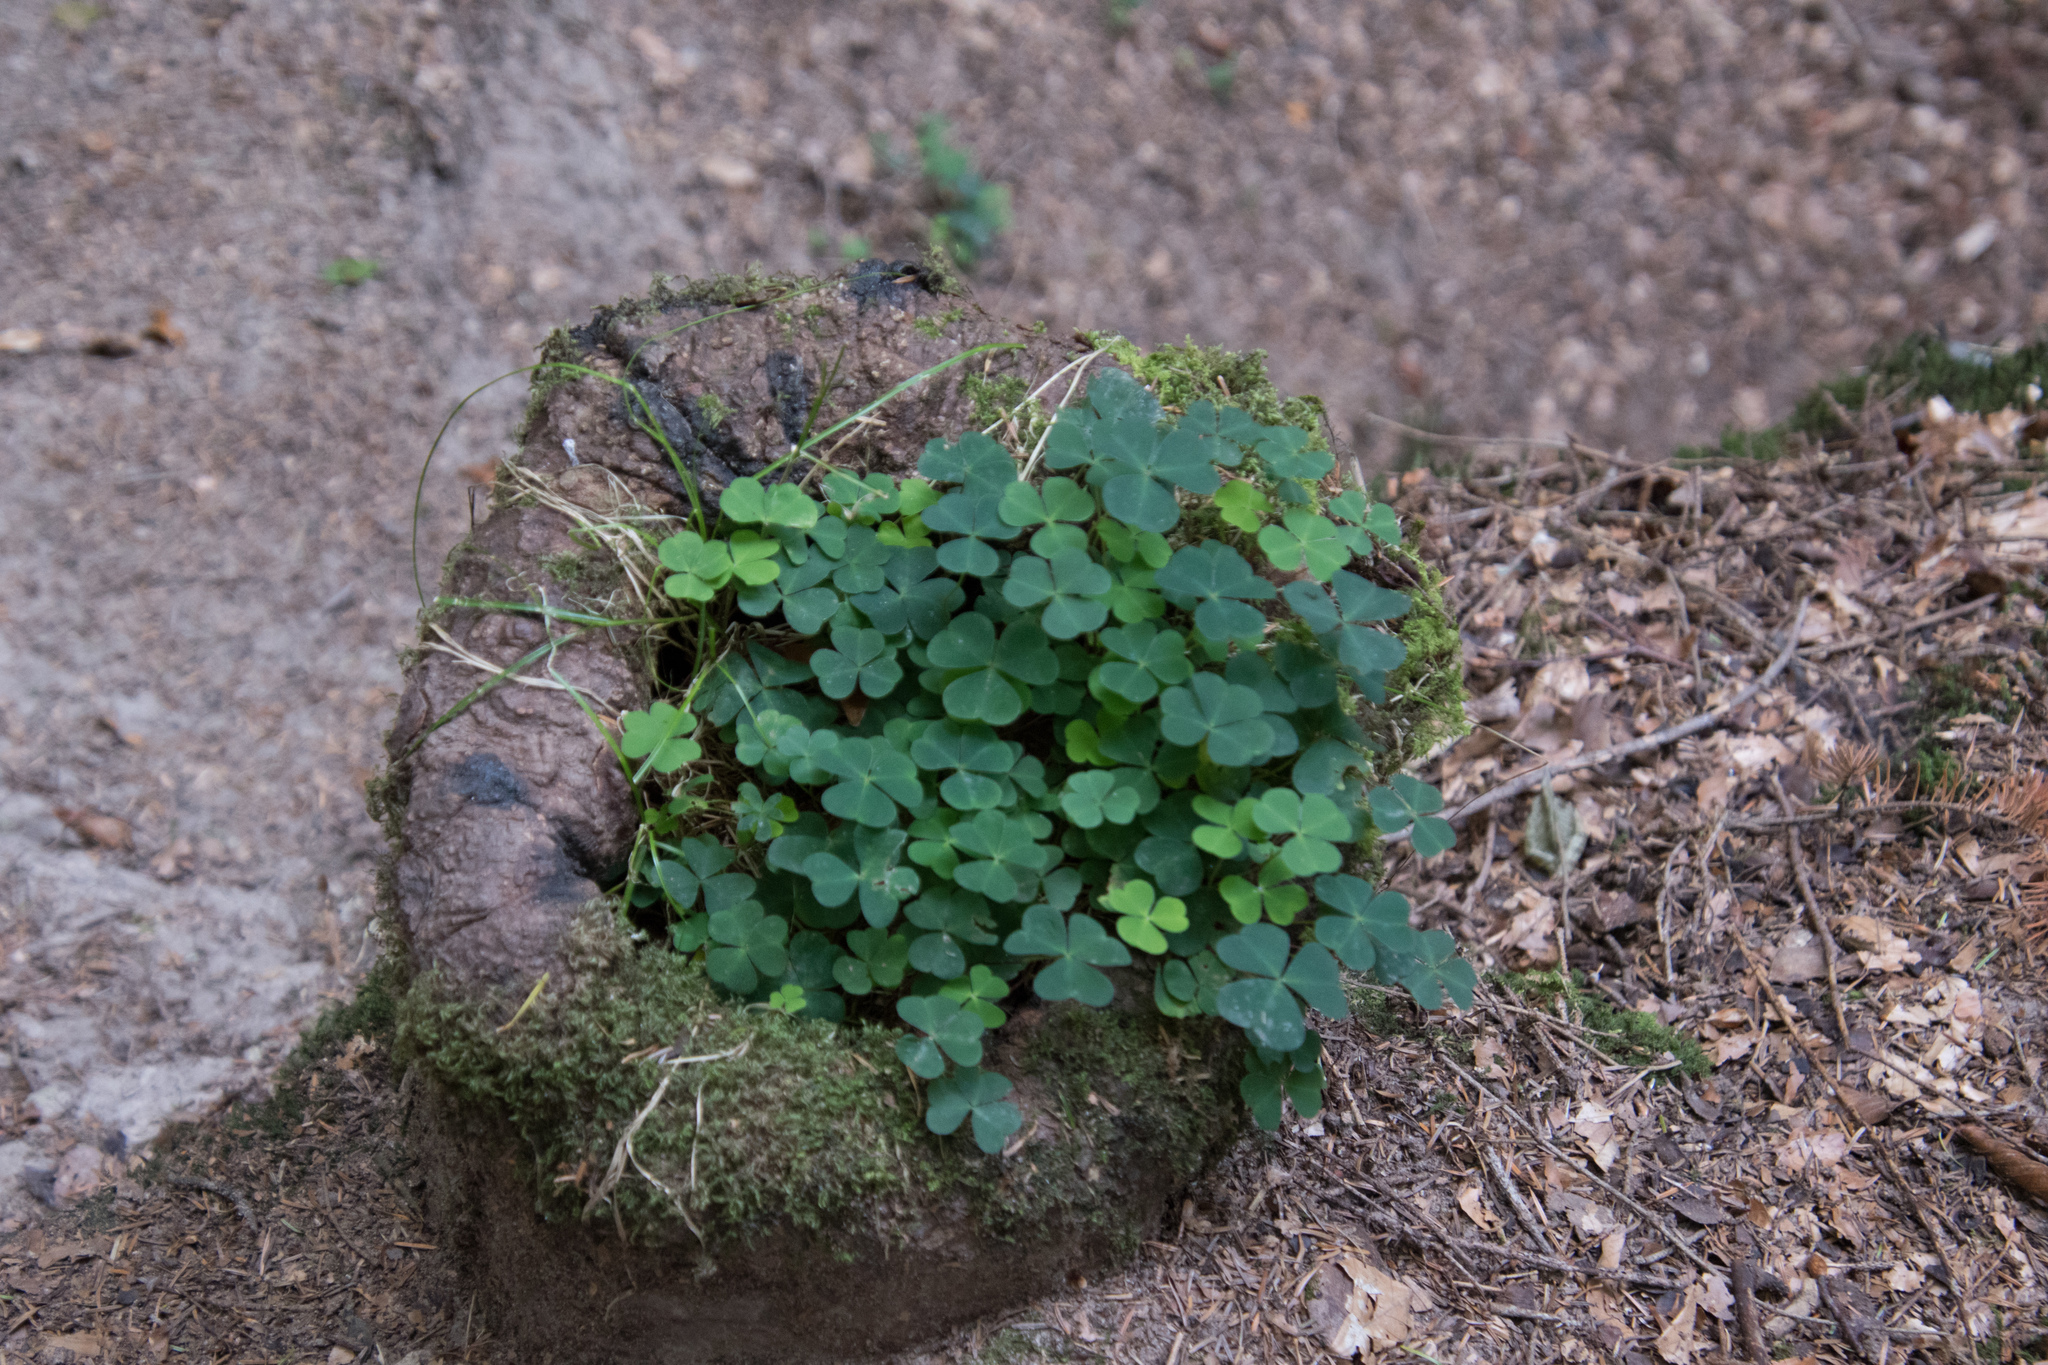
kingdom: Plantae
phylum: Tracheophyta
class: Magnoliopsida
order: Oxalidales
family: Oxalidaceae
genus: Oxalis
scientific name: Oxalis acetosella
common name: Wood-sorrel
